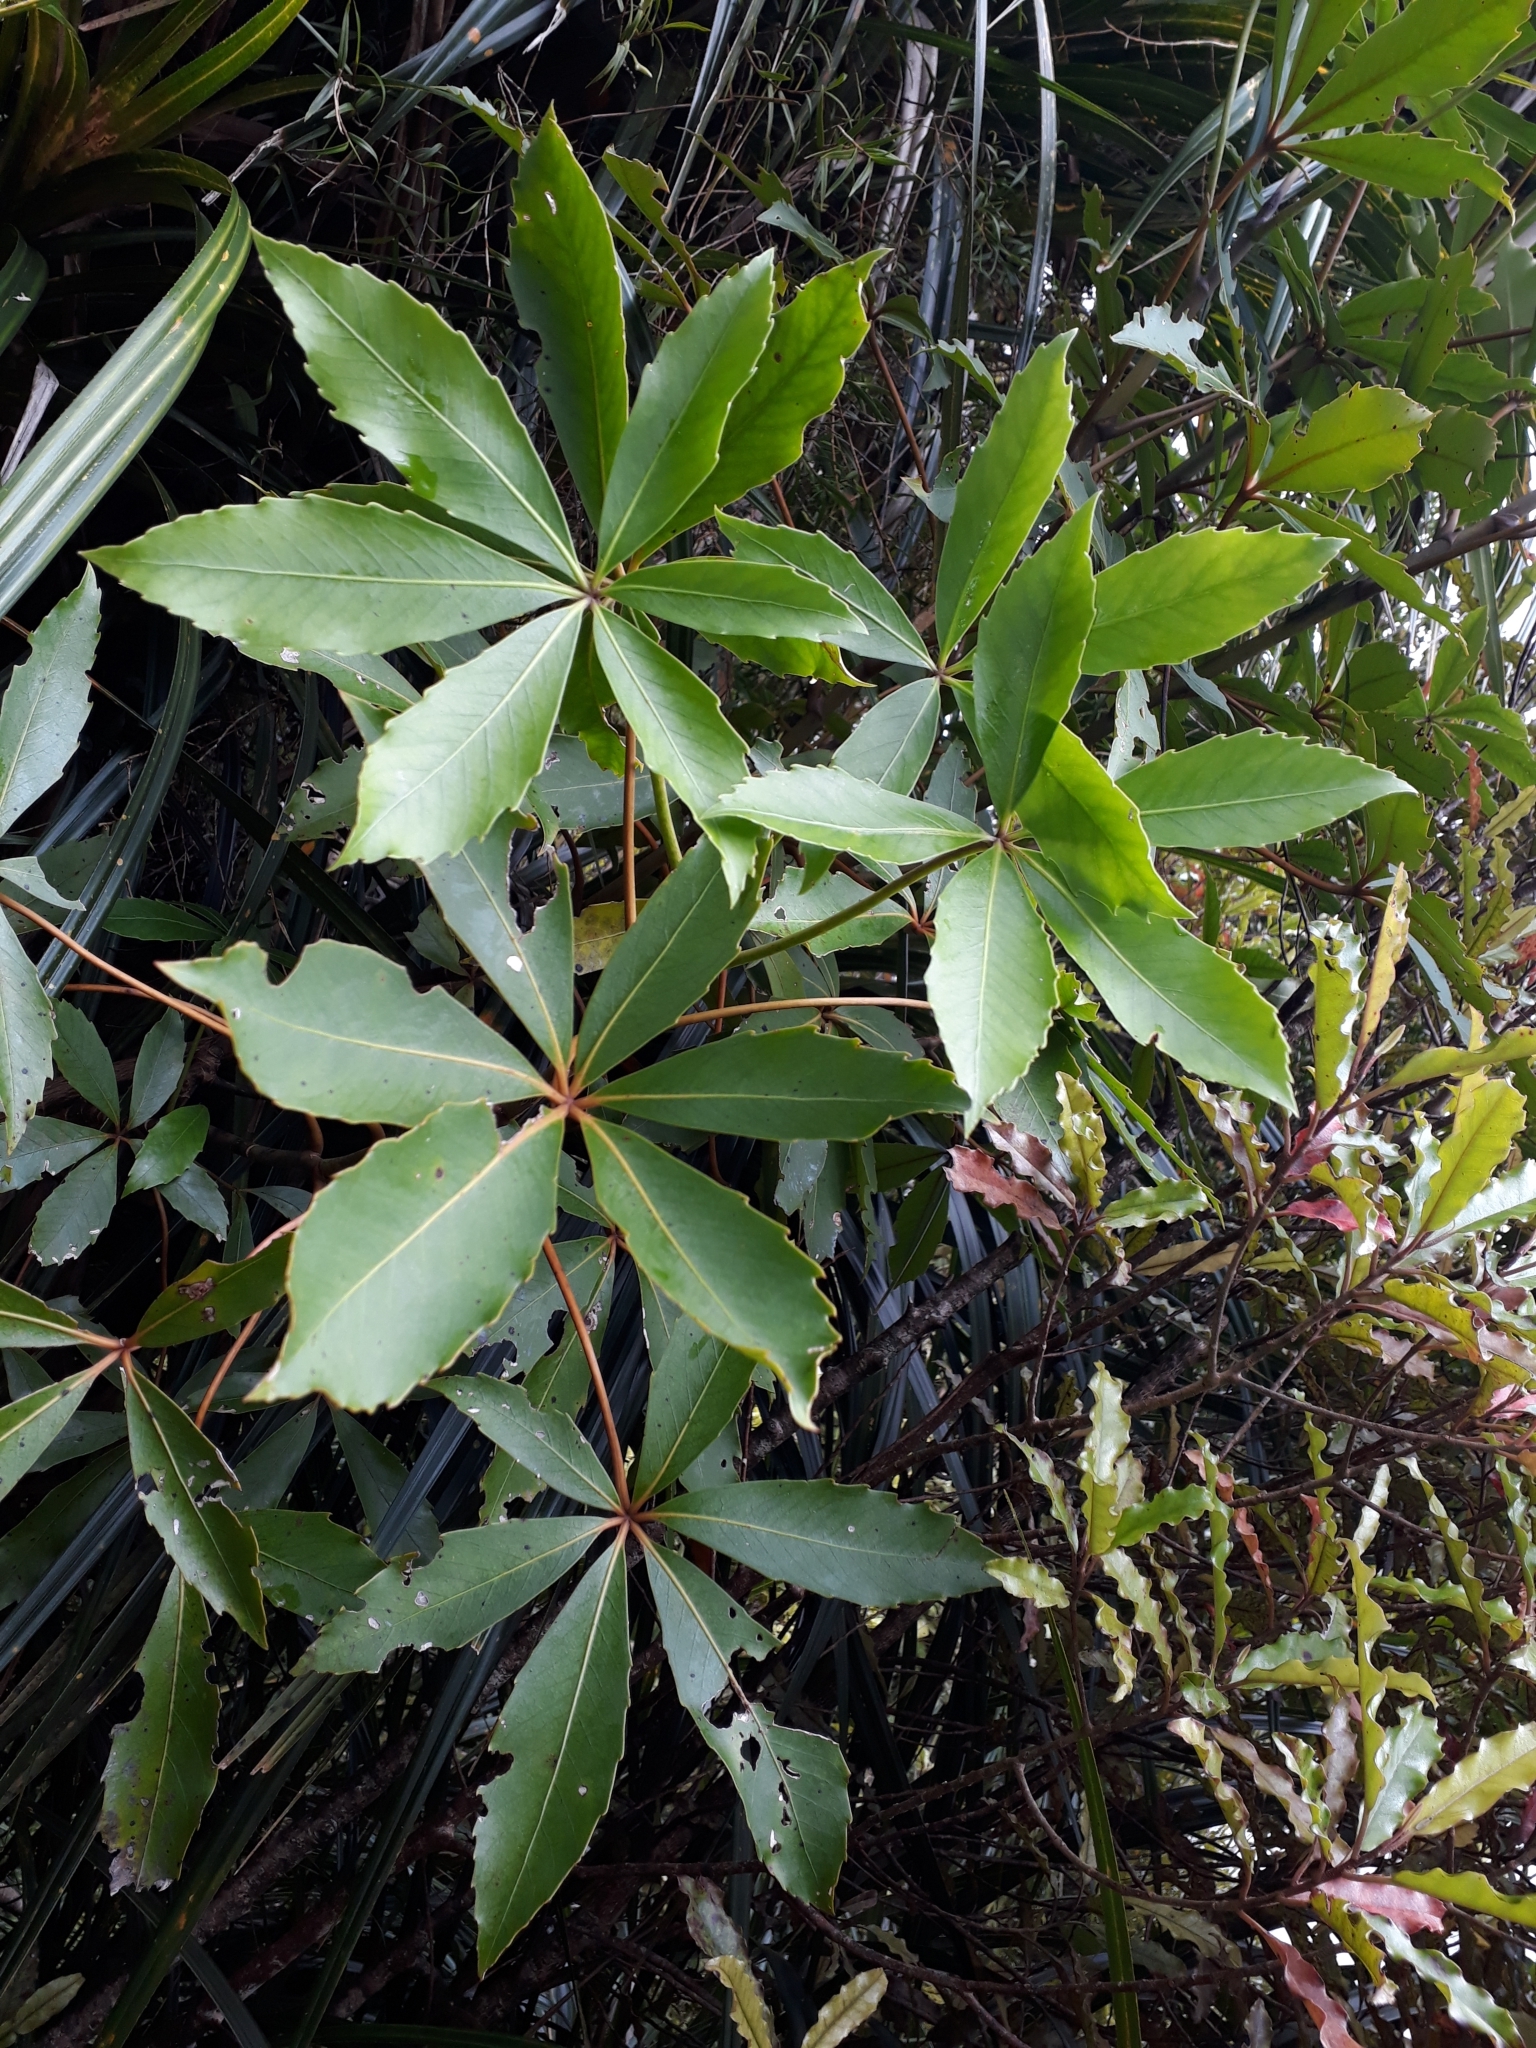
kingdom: Plantae
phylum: Tracheophyta
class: Magnoliopsida
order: Apiales
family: Araliaceae
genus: Neopanax
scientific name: Neopanax colensoi
